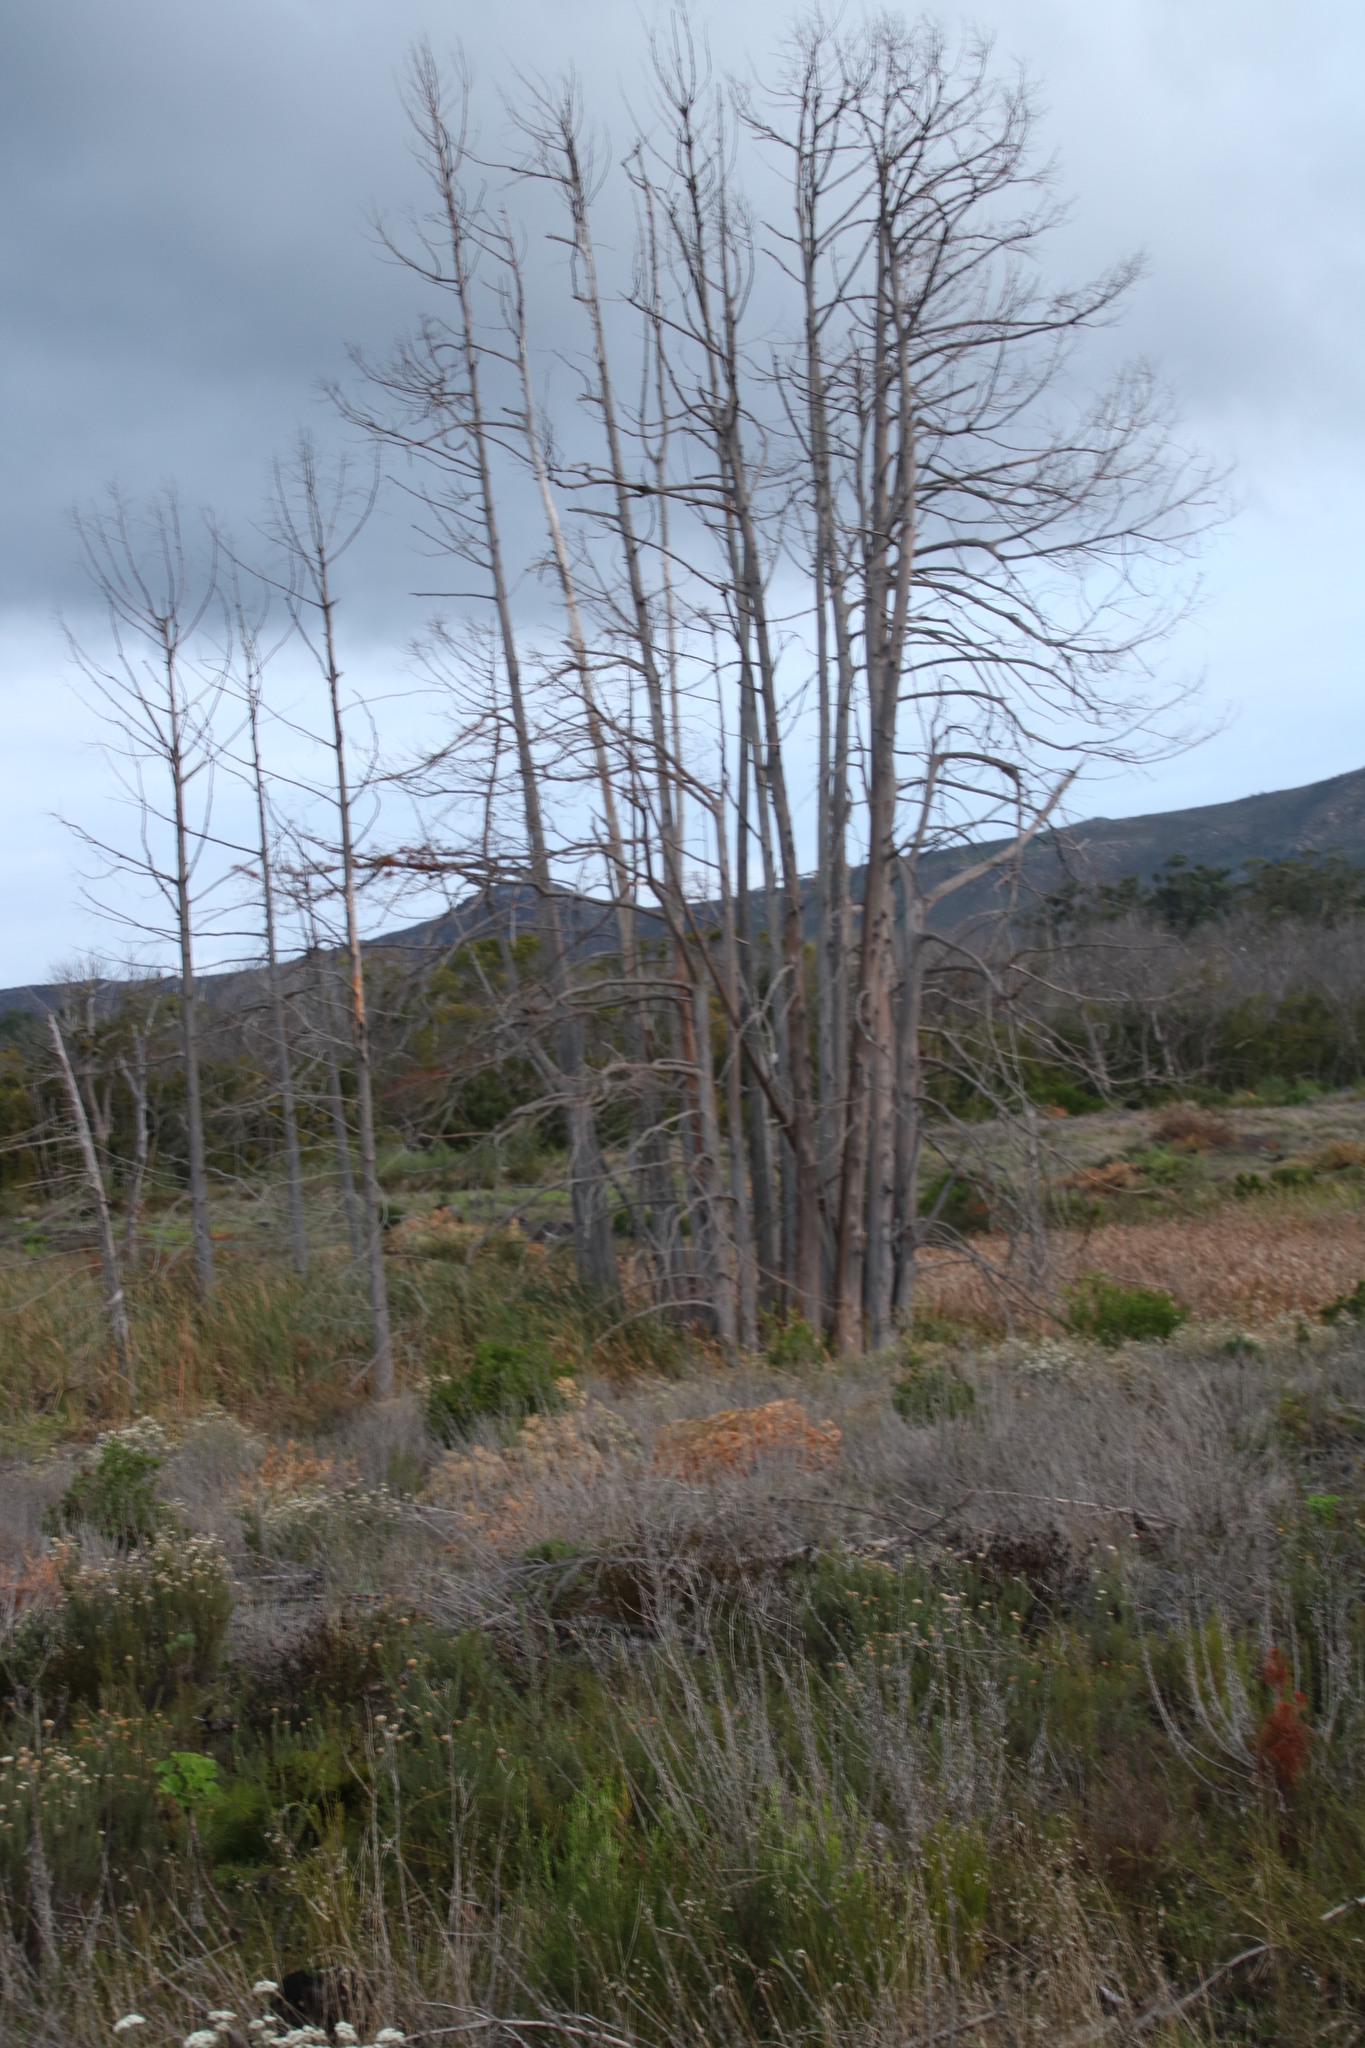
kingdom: Plantae
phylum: Tracheophyta
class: Pinopsida
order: Pinales
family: Cupressaceae
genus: Taxodium
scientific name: Taxodium distichum
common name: Bald cypress
